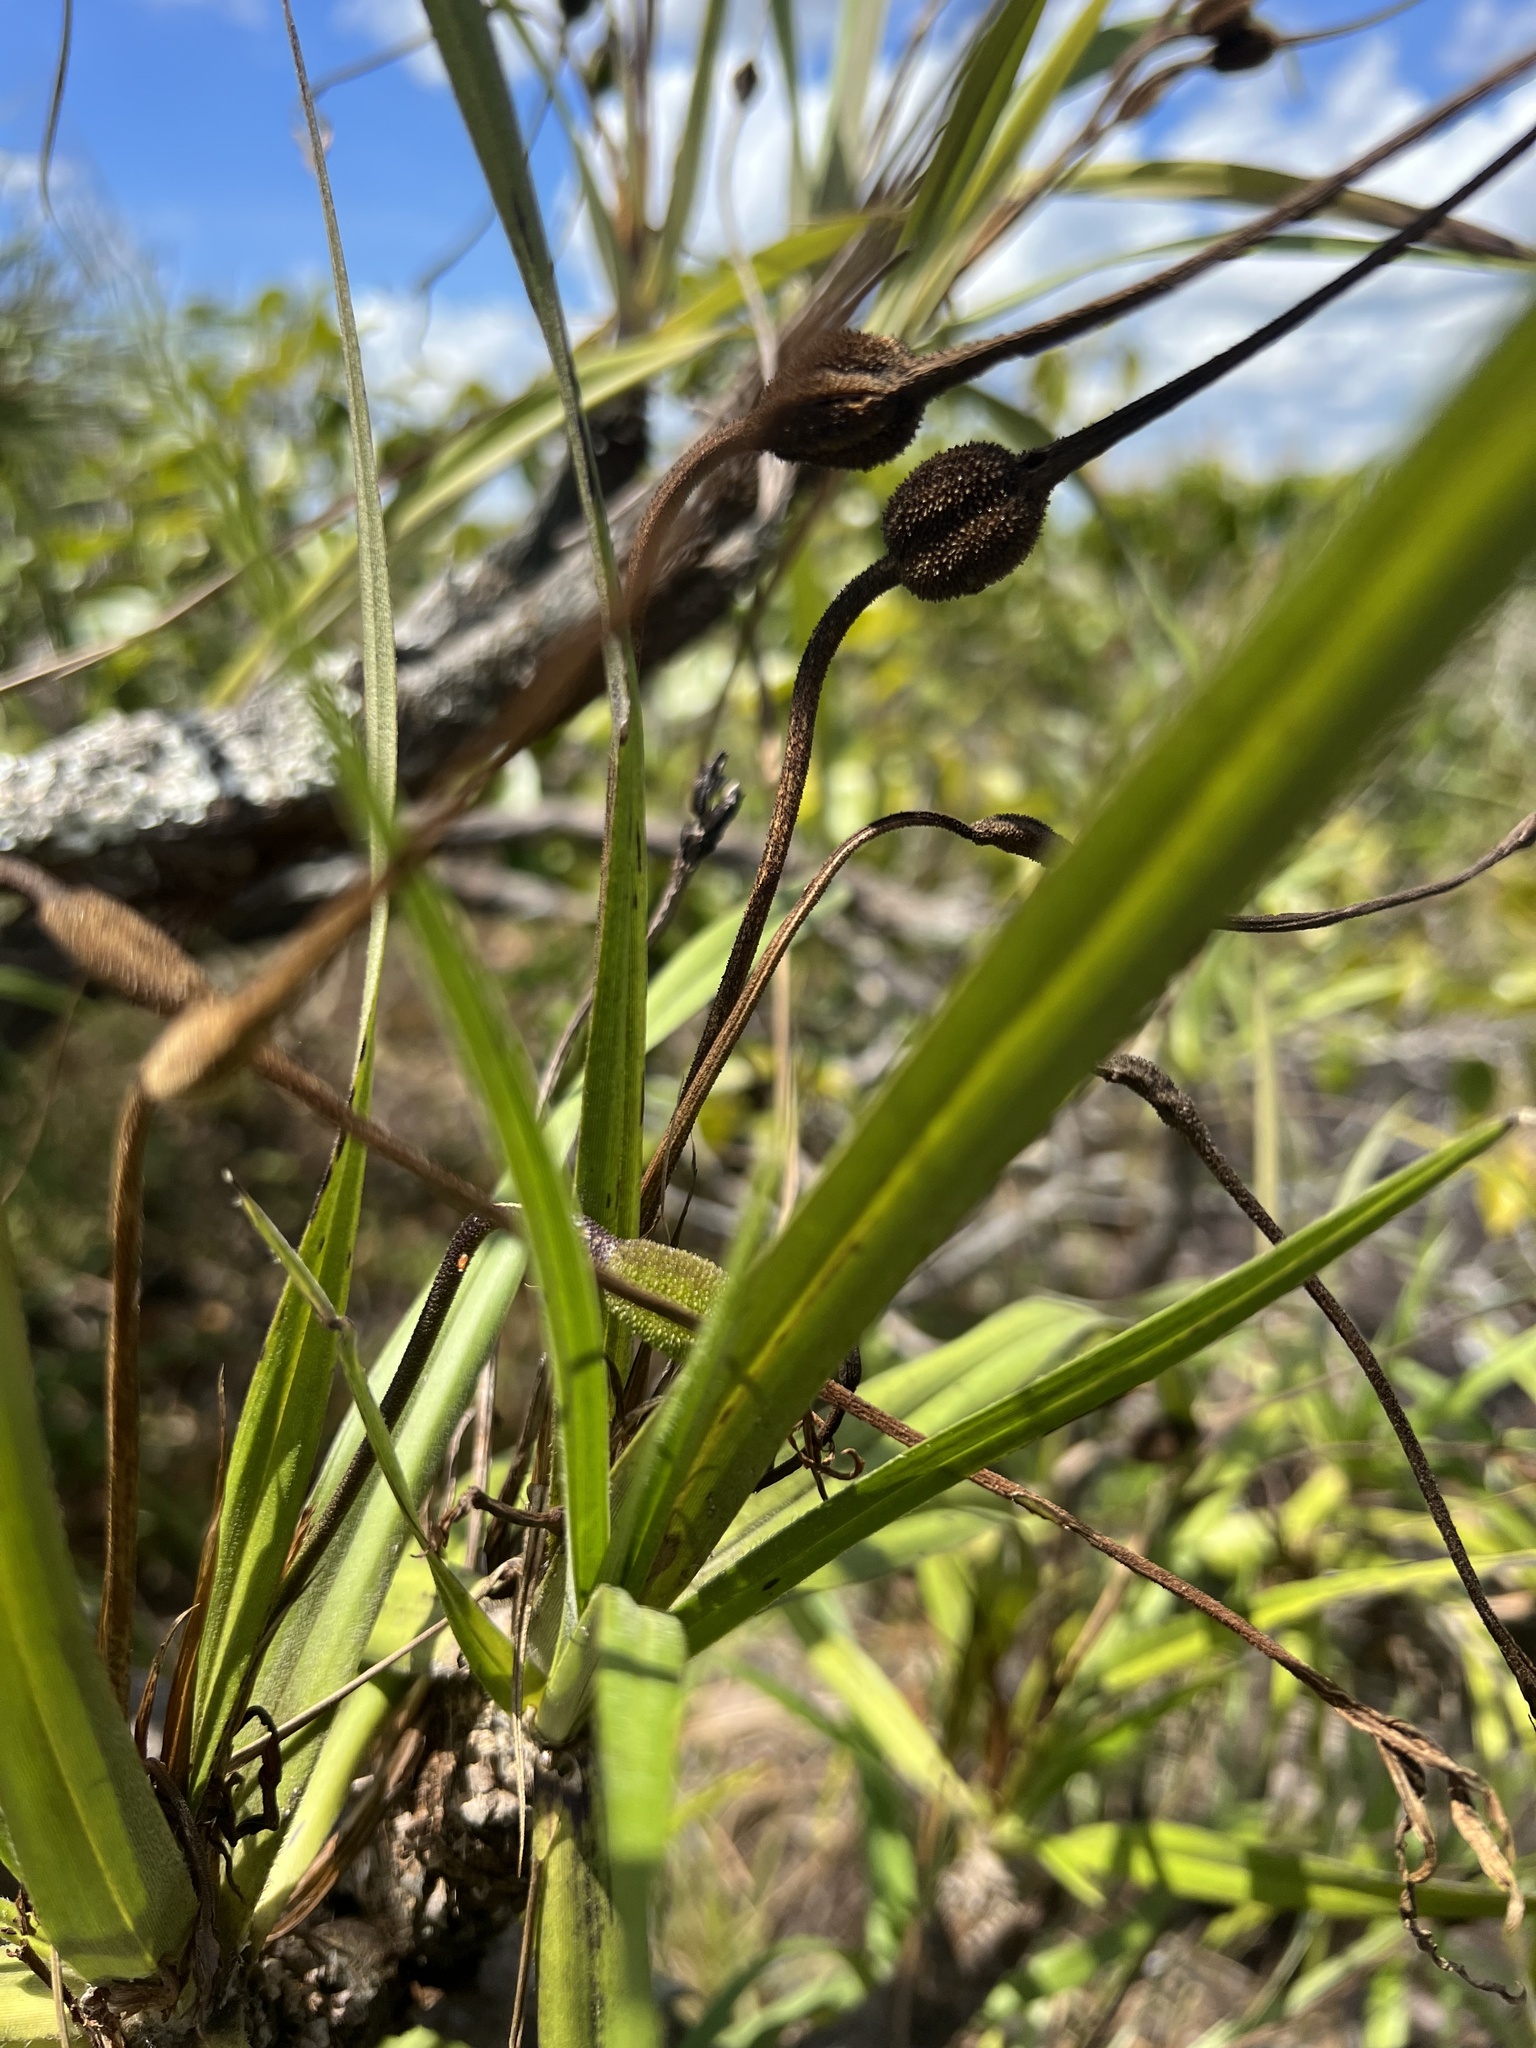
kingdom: Plantae
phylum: Tracheophyta
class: Liliopsida
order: Pandanales
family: Velloziaceae
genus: Vellozia
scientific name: Vellozia tubiflora
